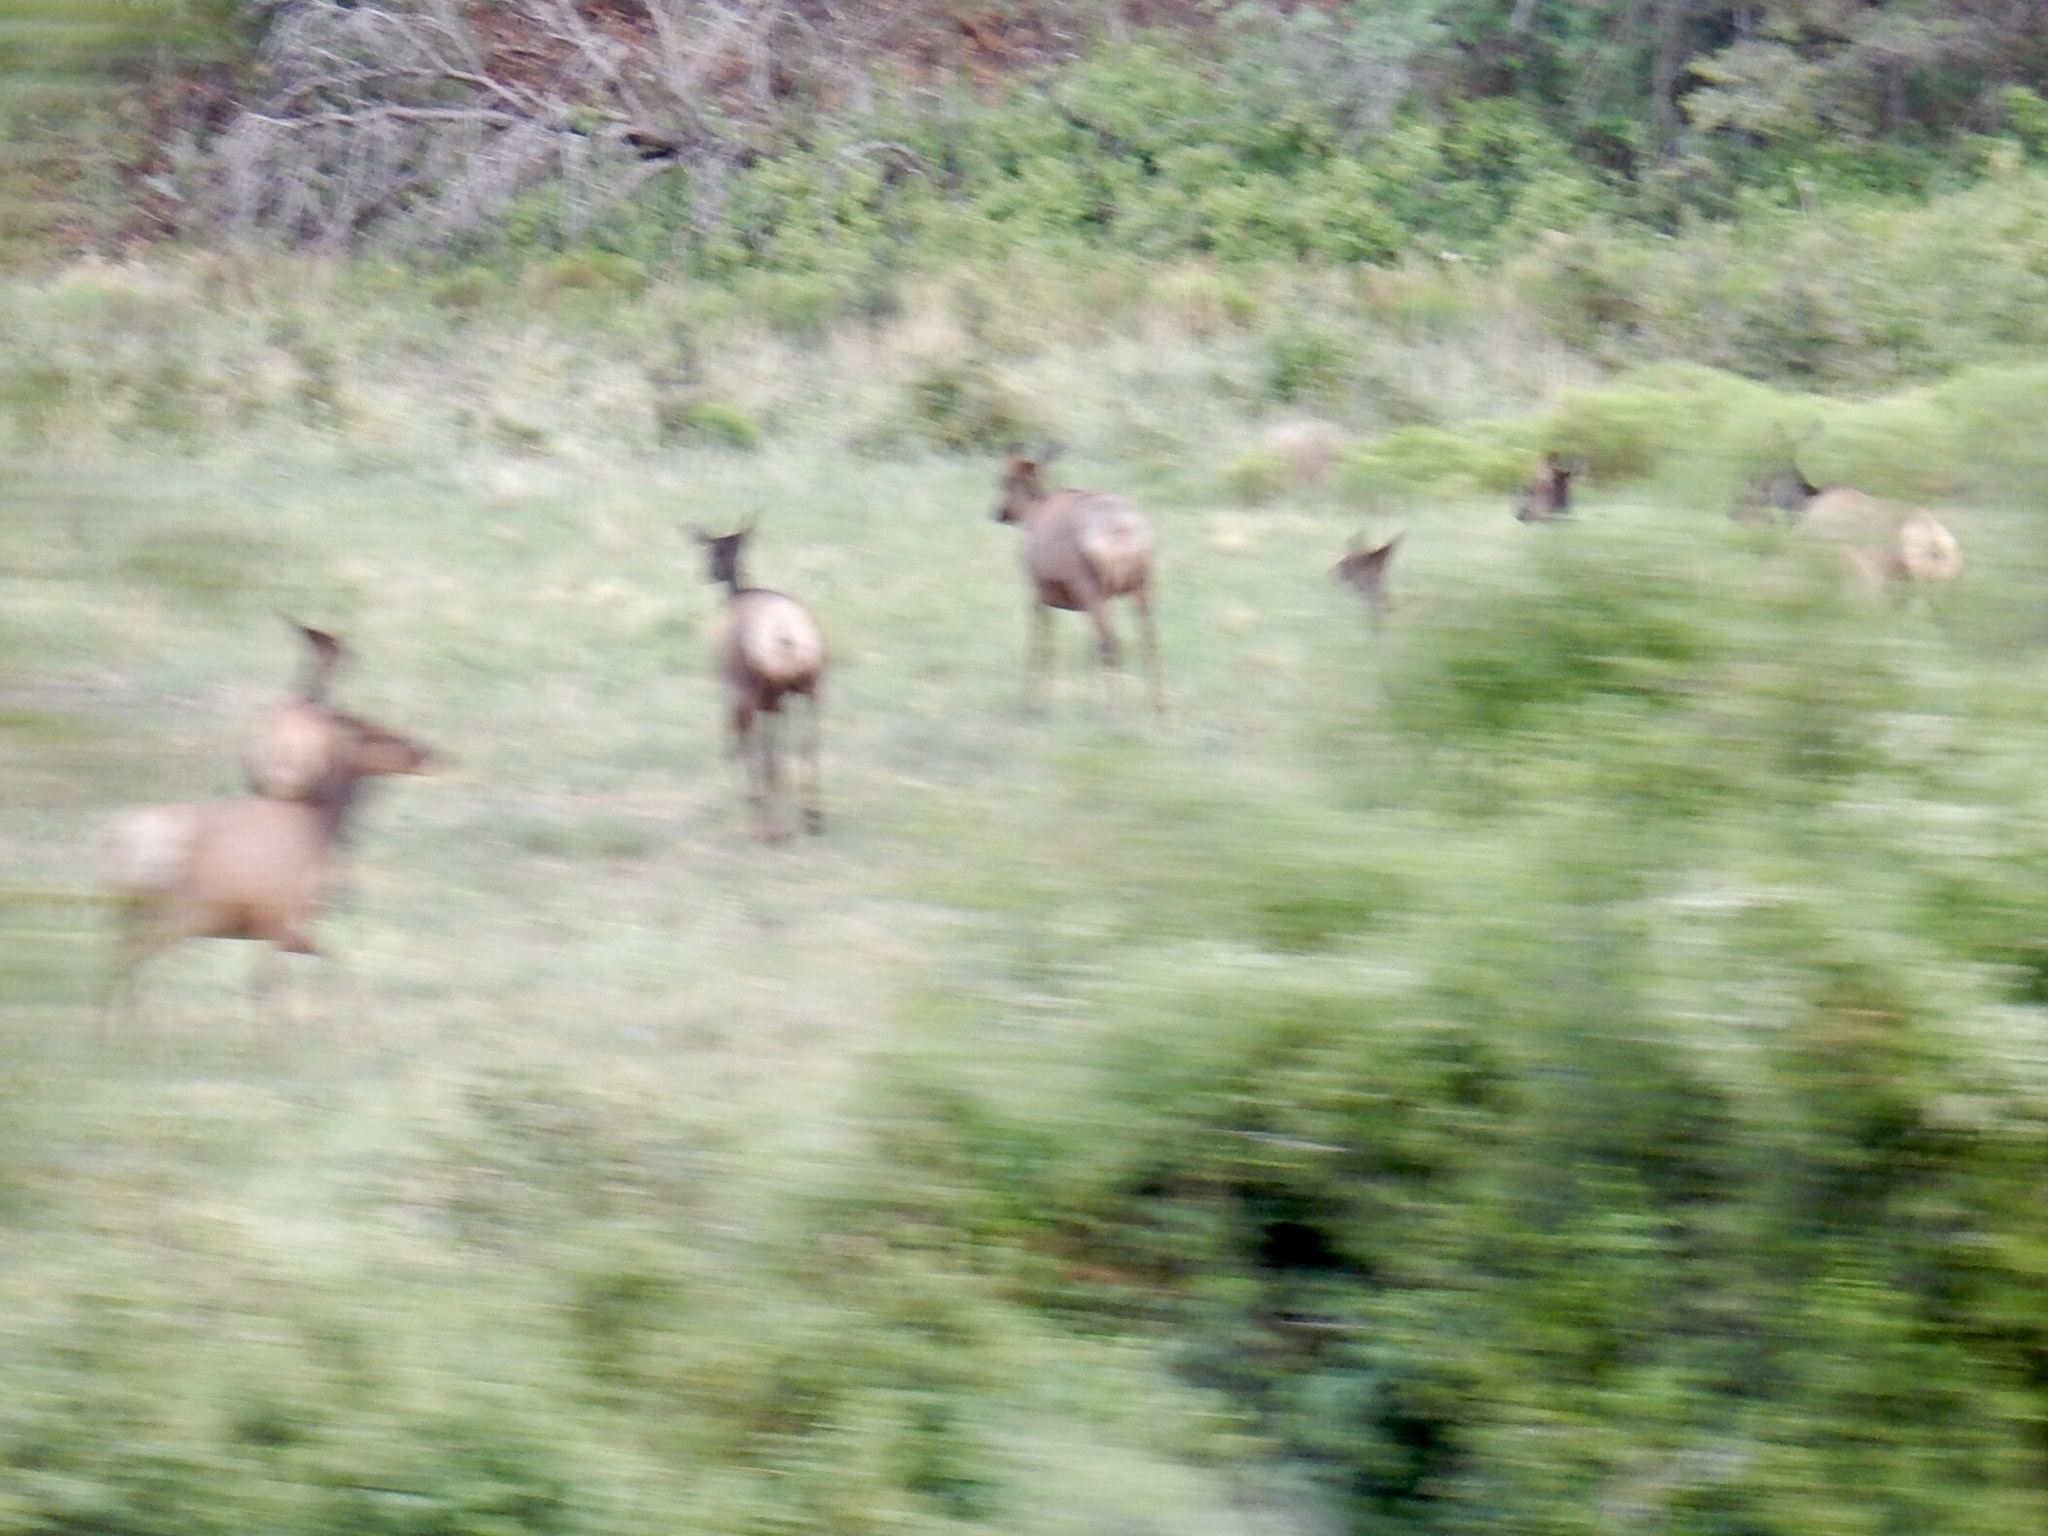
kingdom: Animalia
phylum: Chordata
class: Mammalia
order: Artiodactyla
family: Cervidae
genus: Cervus
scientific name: Cervus elaphus
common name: Red deer
